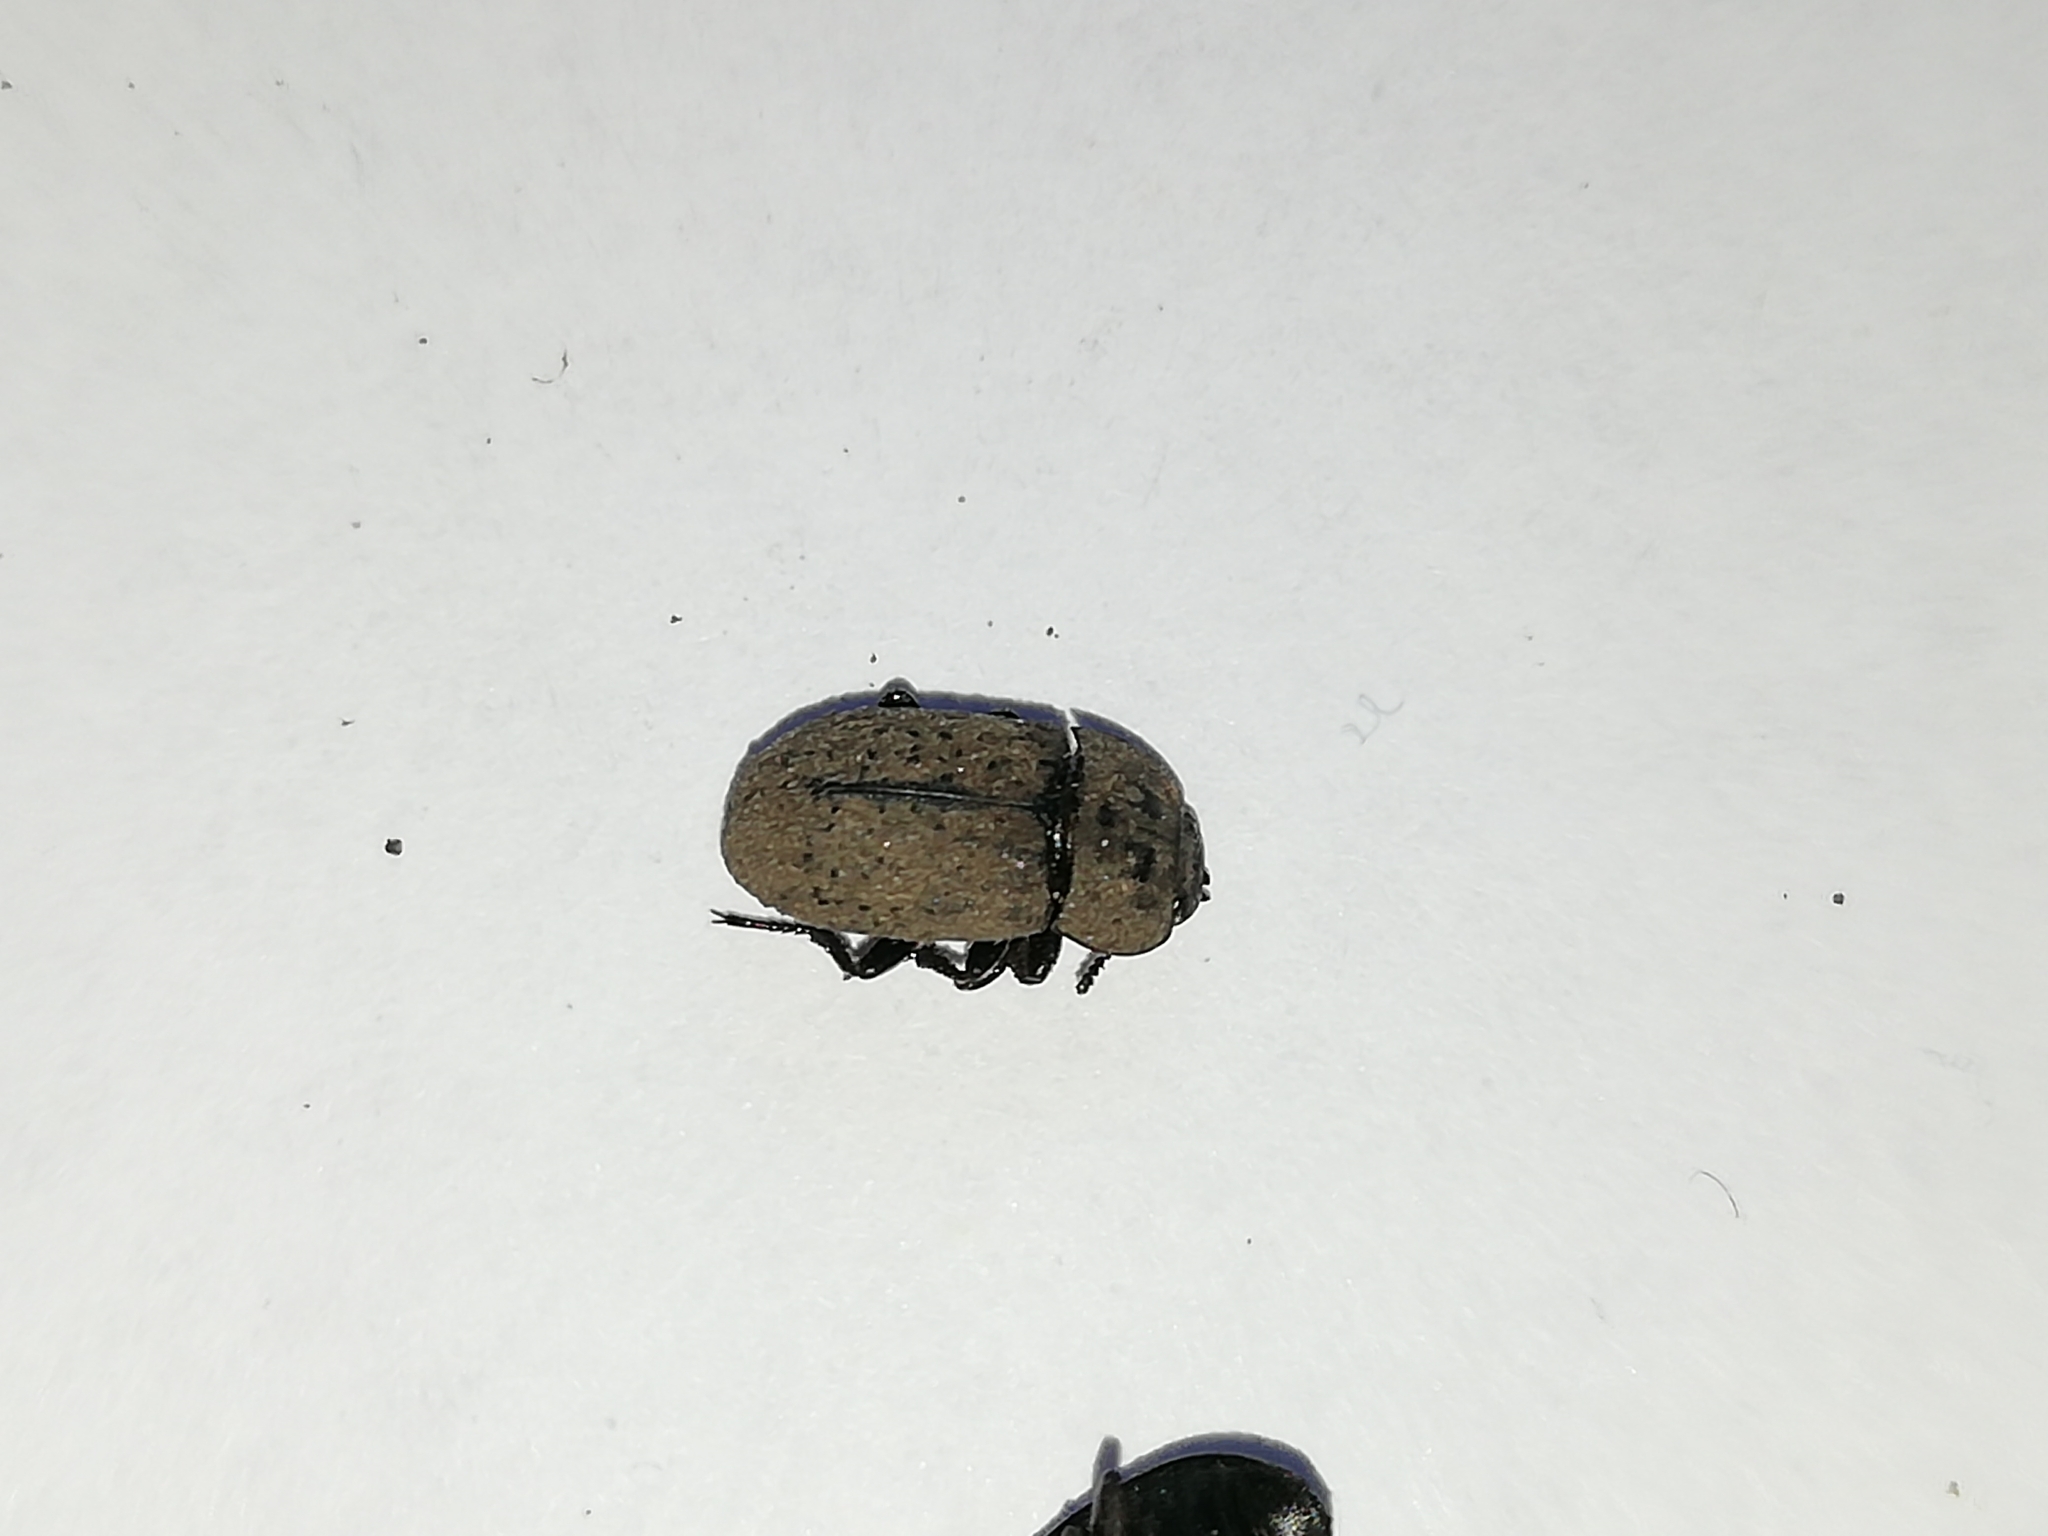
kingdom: Animalia
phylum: Arthropoda
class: Insecta
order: Coleoptera
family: Tenebrionidae
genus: Opatrum
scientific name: Opatrum sabulosum
